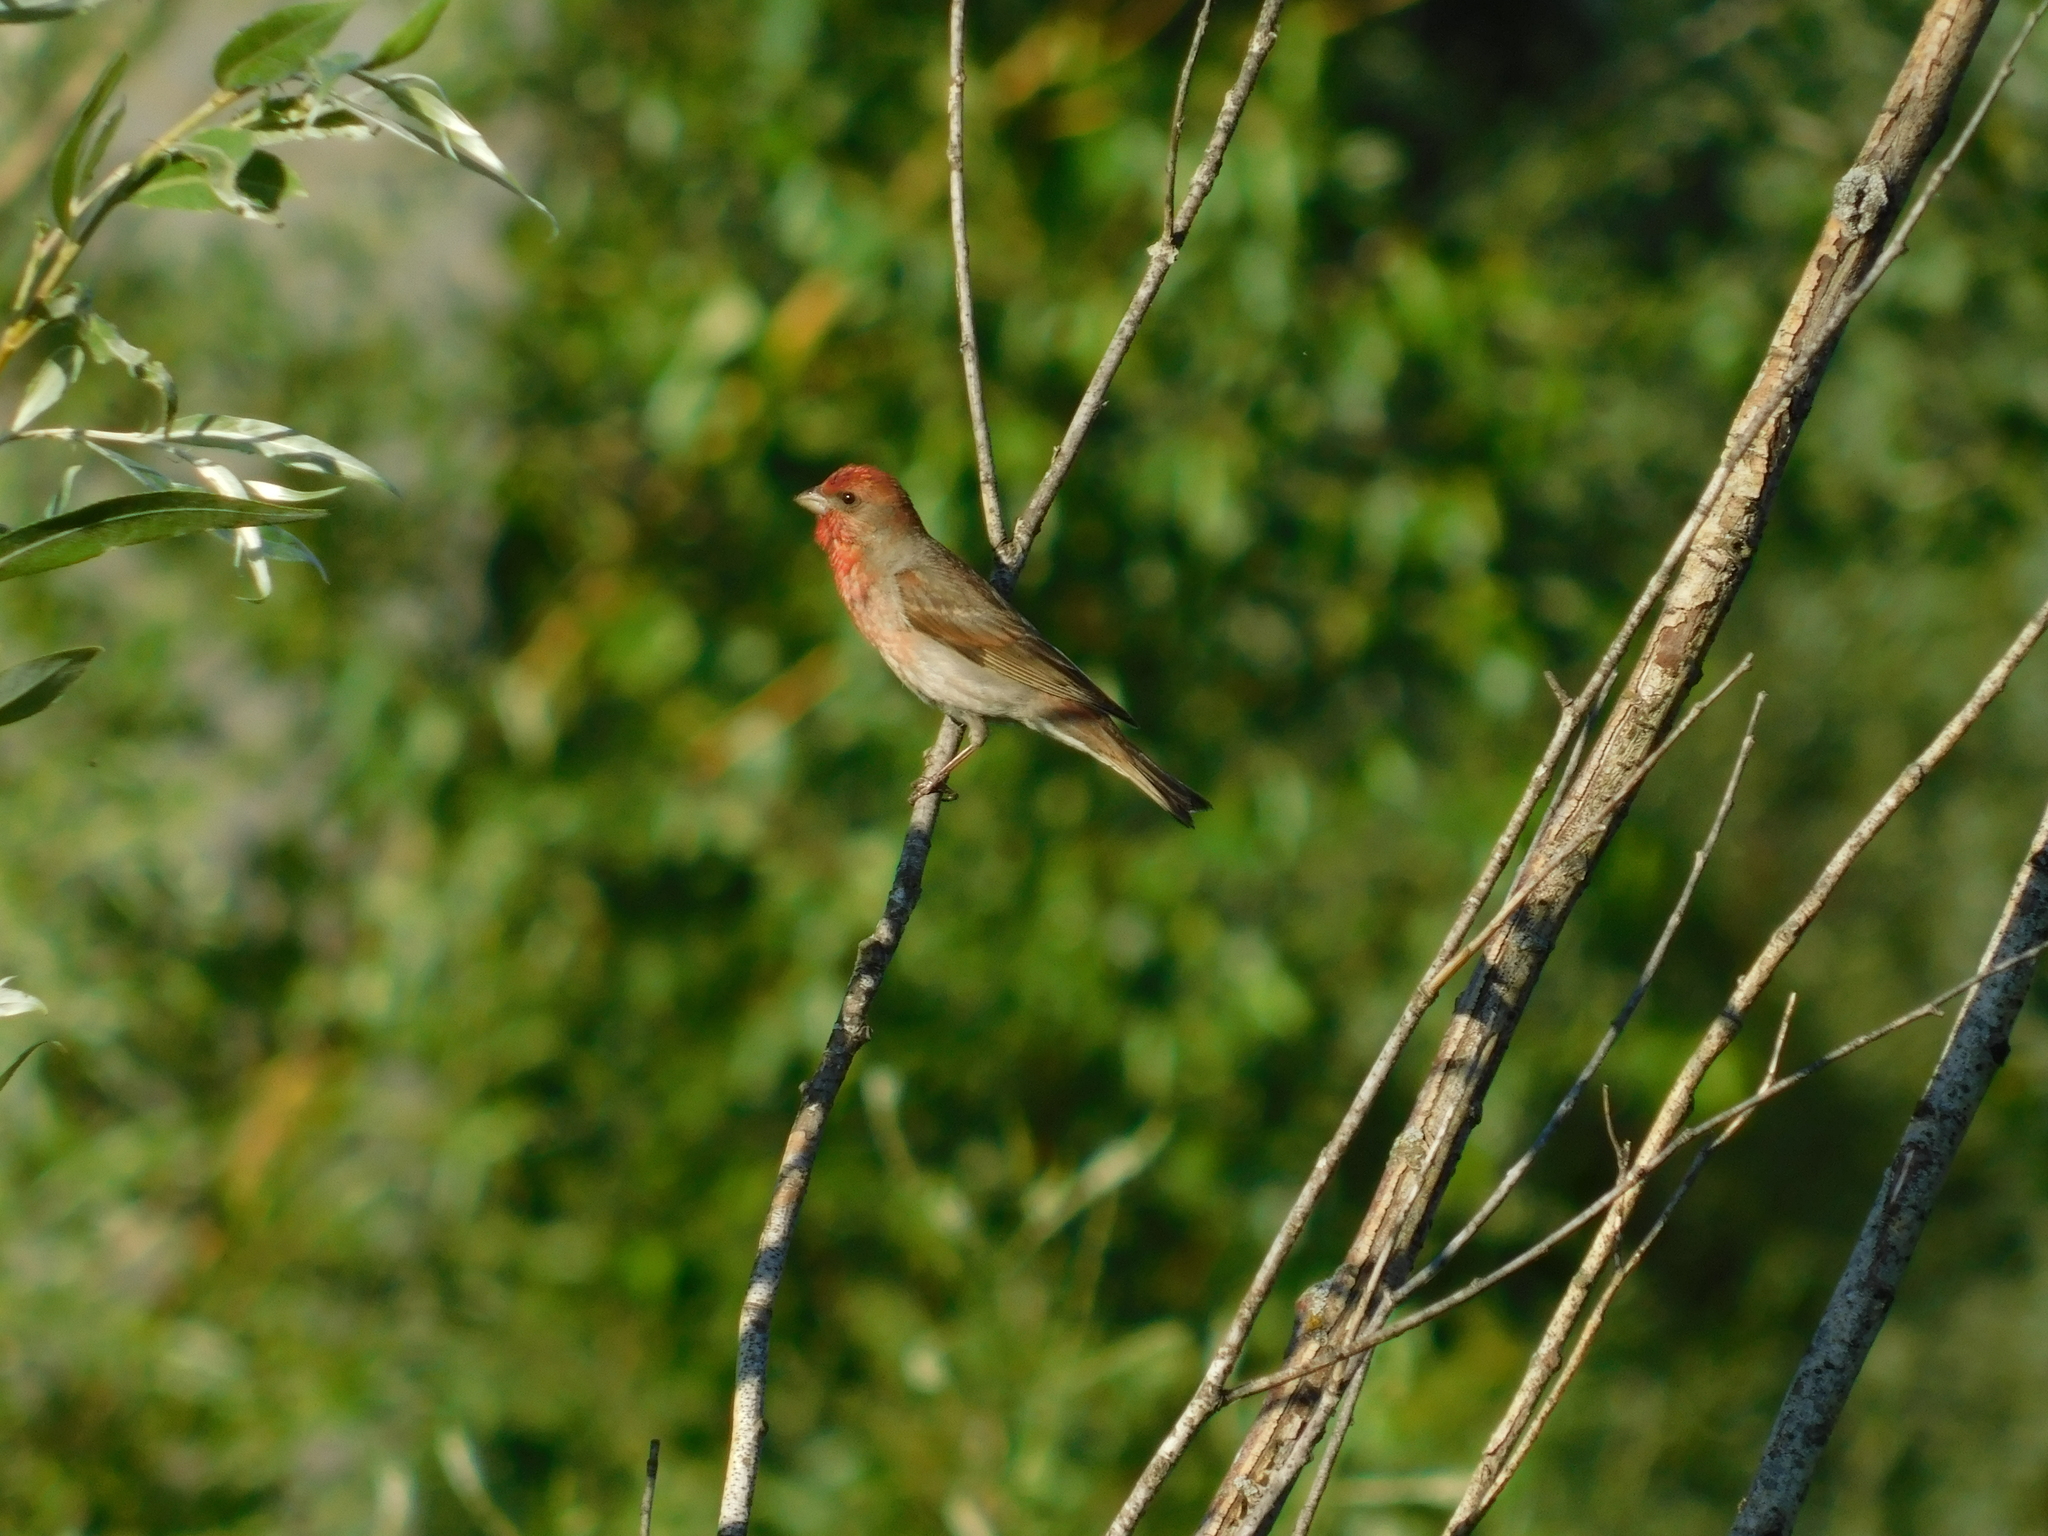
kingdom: Animalia
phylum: Chordata
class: Aves
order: Passeriformes
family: Fringillidae
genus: Carpodacus
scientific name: Carpodacus erythrinus
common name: Common rosefinch
